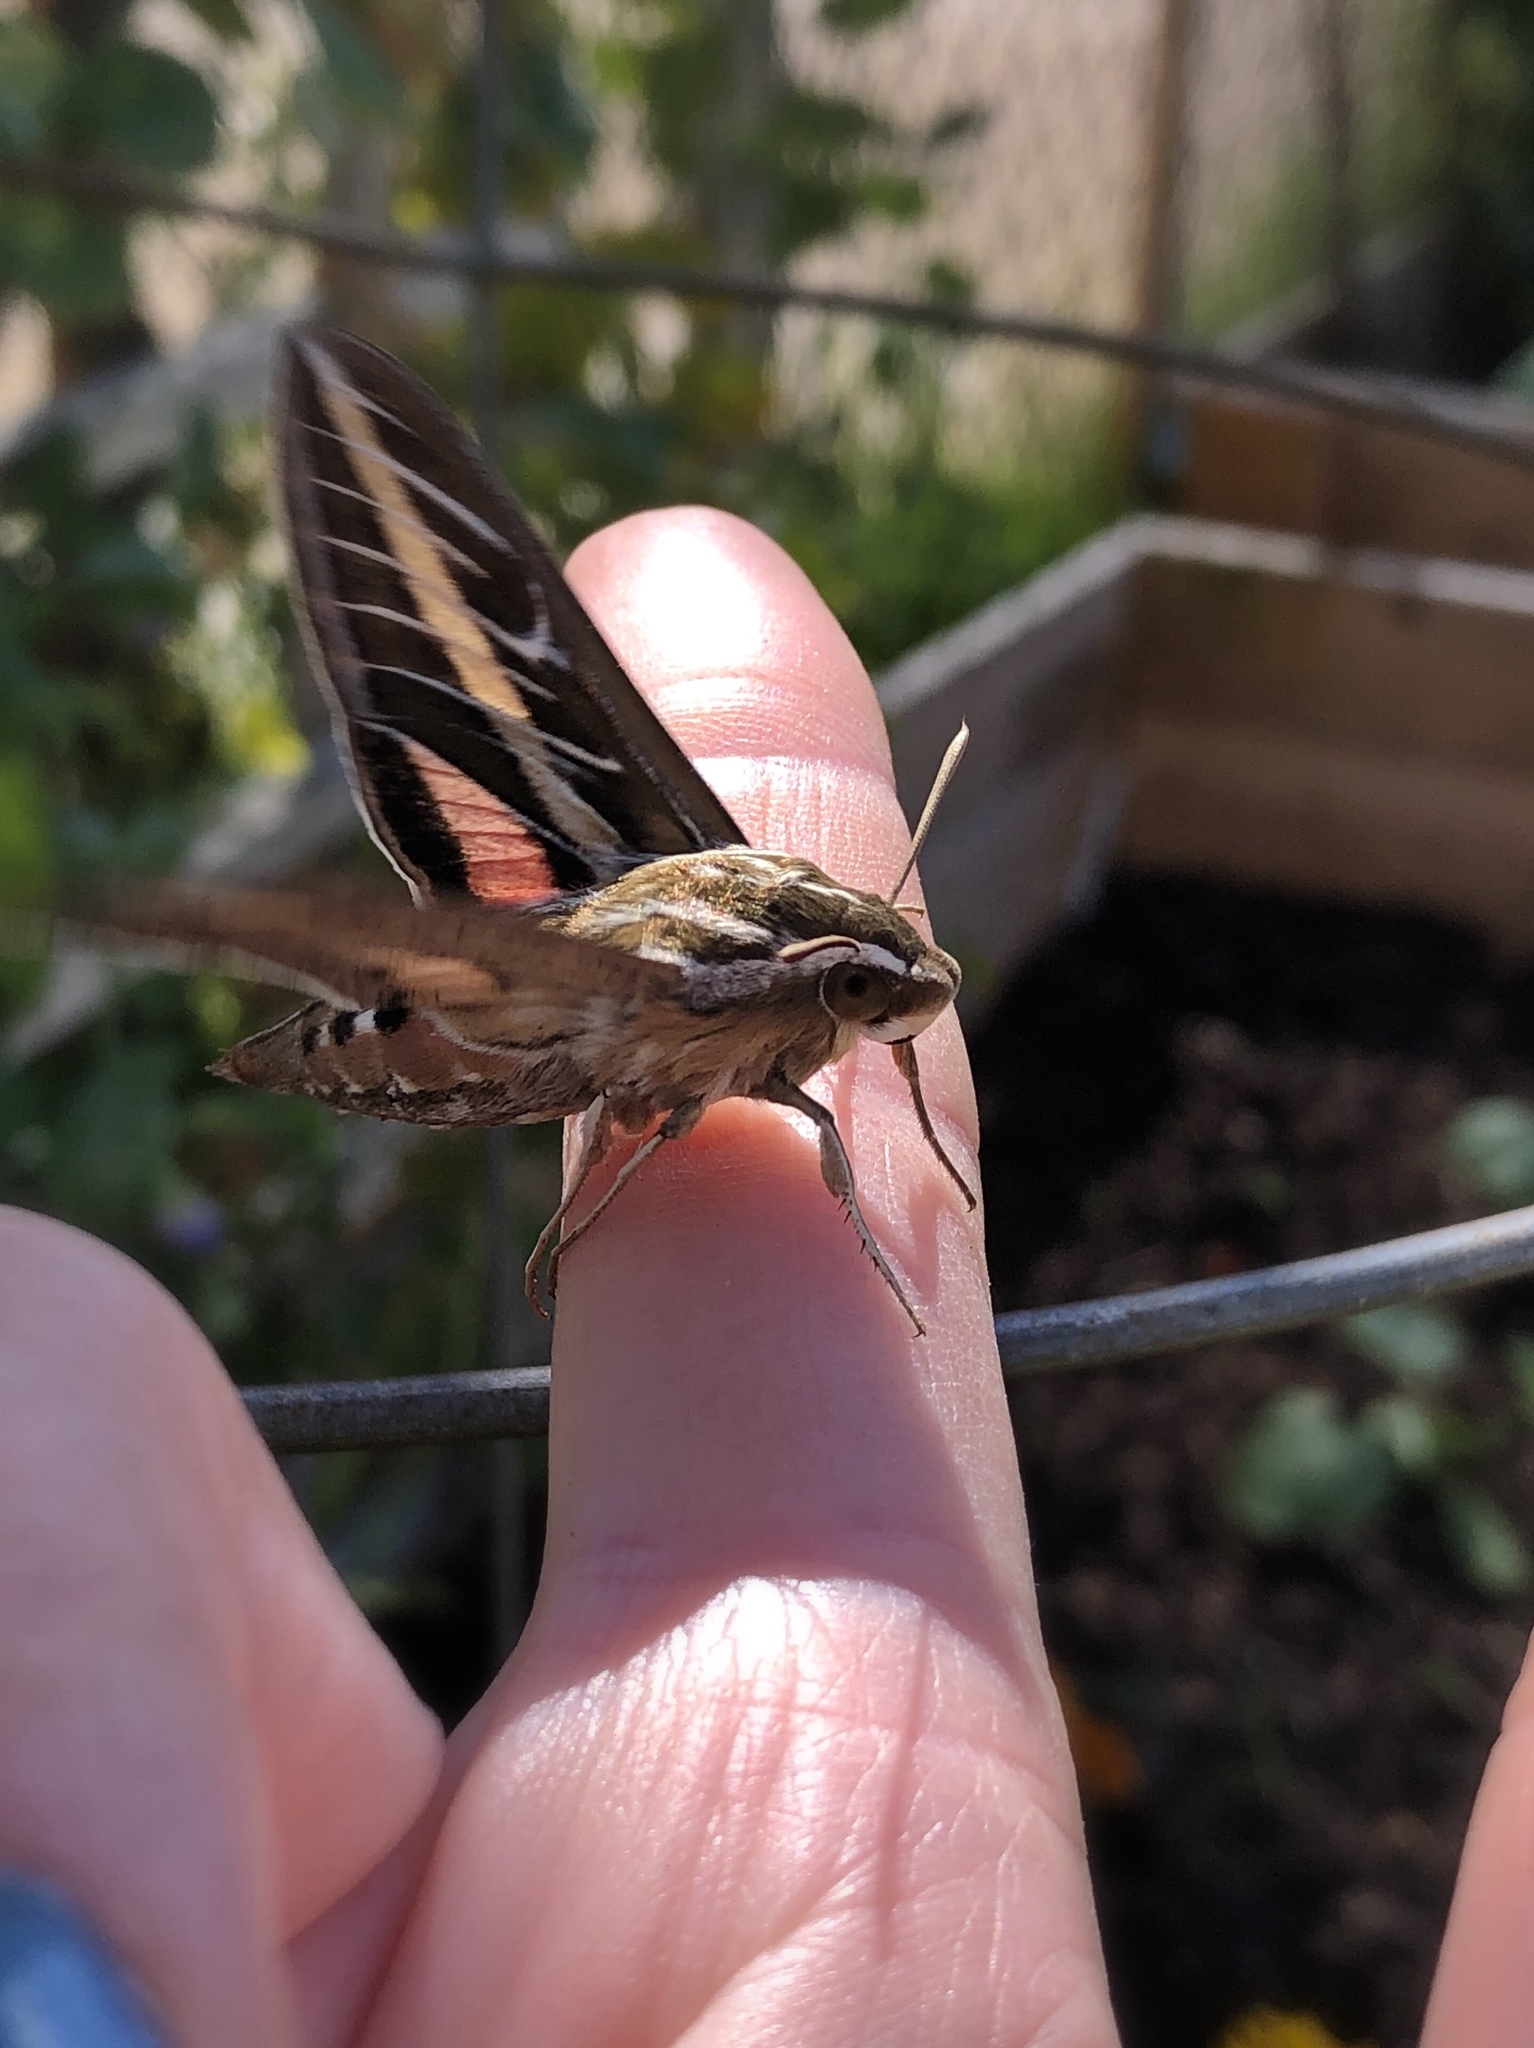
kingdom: Animalia
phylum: Arthropoda
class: Insecta
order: Lepidoptera
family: Sphingidae
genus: Hyles
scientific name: Hyles lineata
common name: White-lined sphinx
